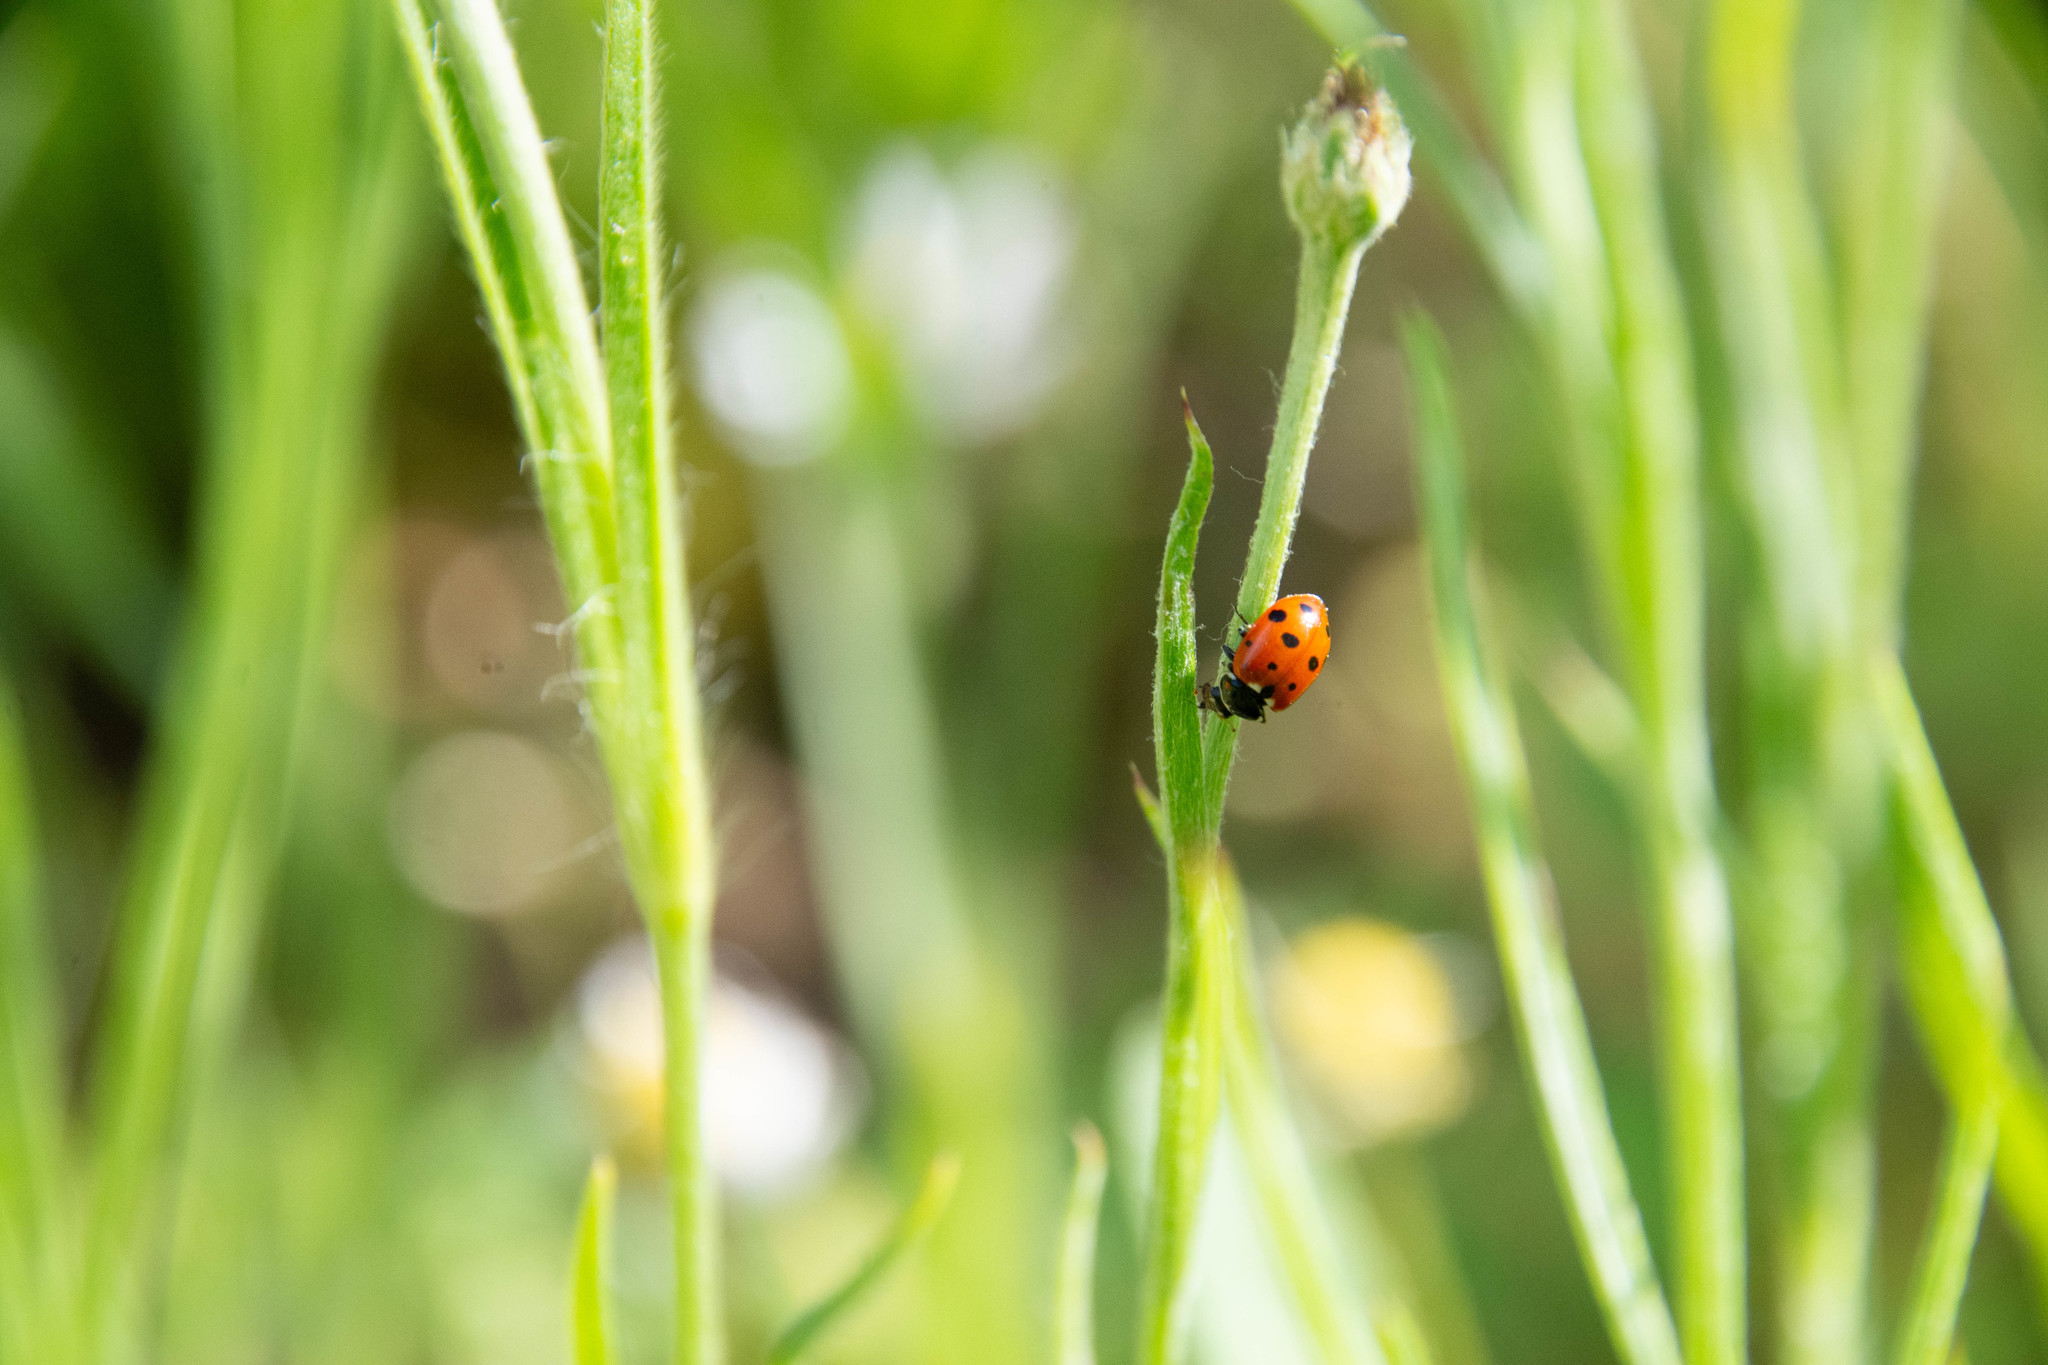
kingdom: Animalia
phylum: Arthropoda
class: Insecta
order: Coleoptera
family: Coccinellidae
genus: Hippodamia
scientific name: Hippodamia variegata
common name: Ladybird beetle
